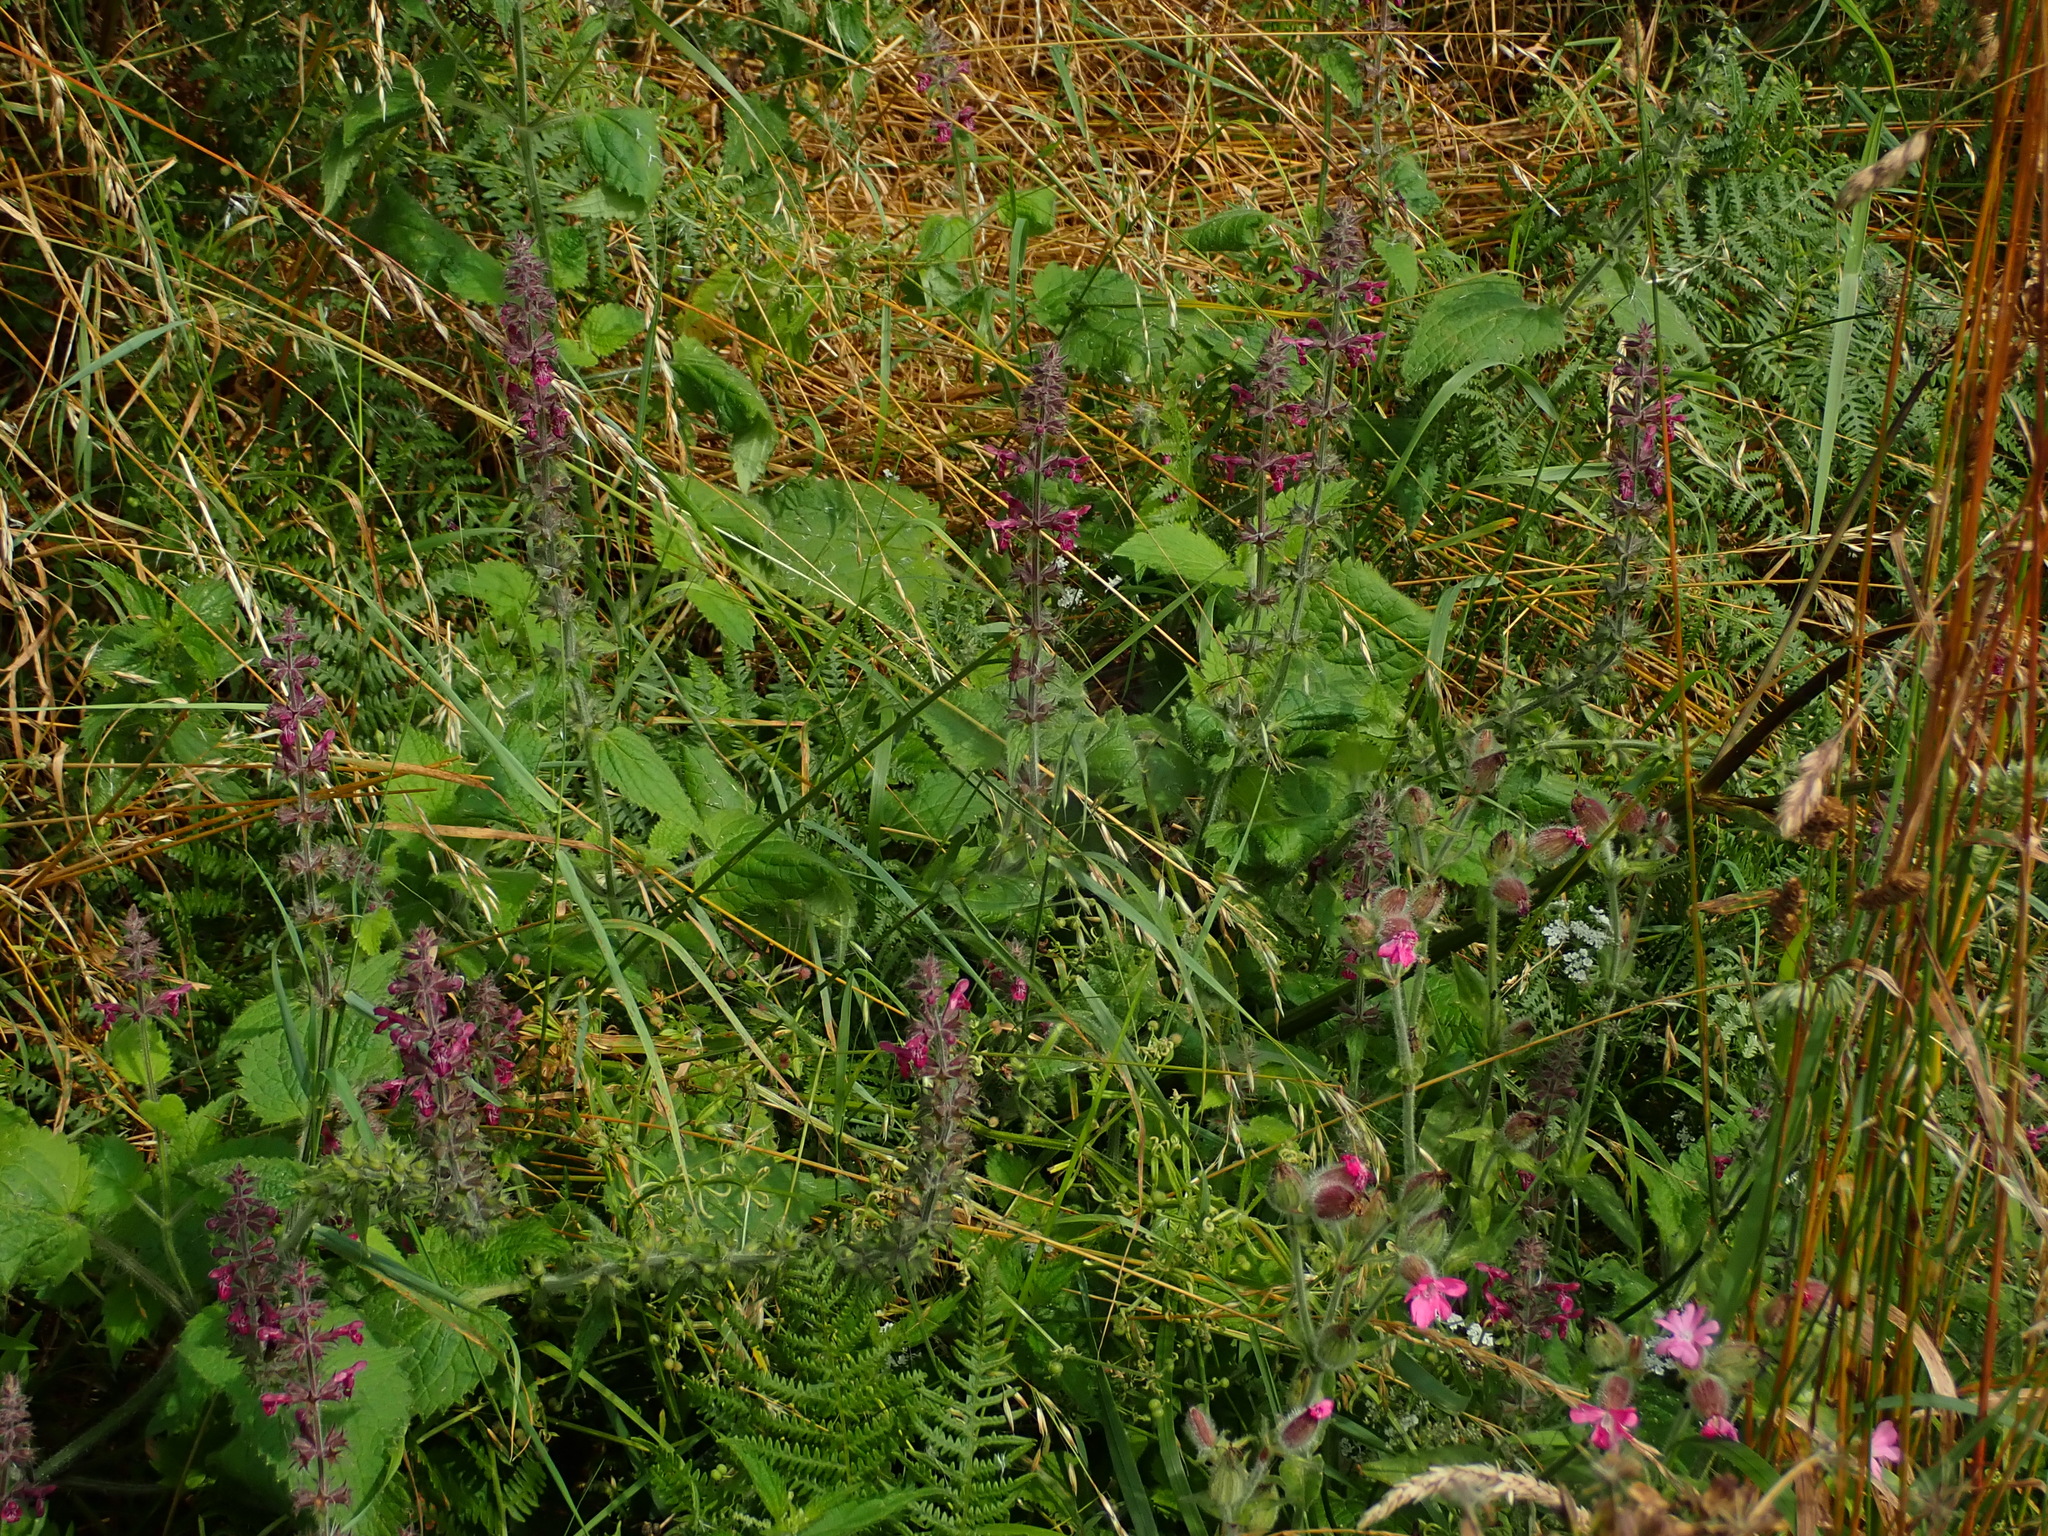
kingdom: Plantae
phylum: Tracheophyta
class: Magnoliopsida
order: Lamiales
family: Lamiaceae
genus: Stachys
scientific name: Stachys sylvatica
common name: Hedge woundwort
